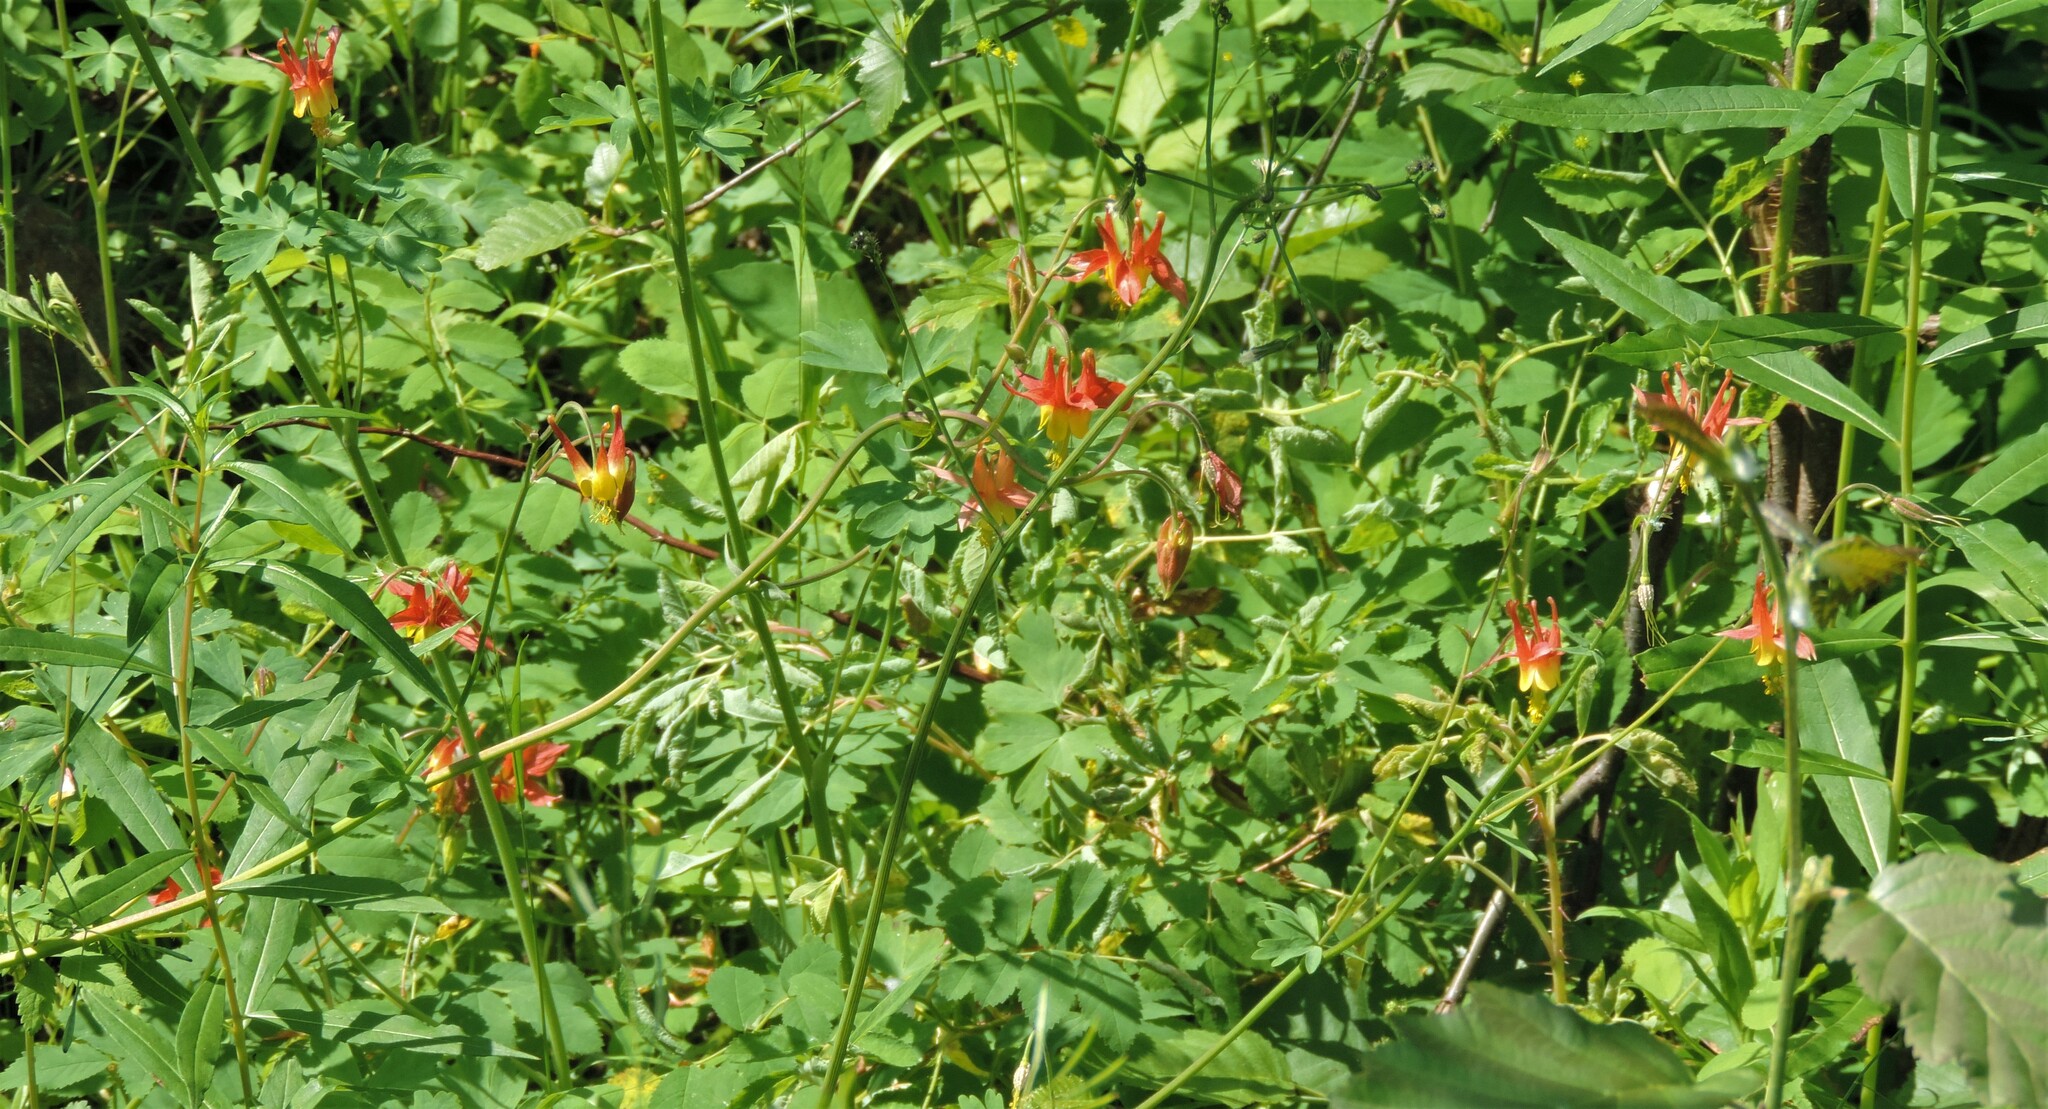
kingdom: Plantae
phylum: Tracheophyta
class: Magnoliopsida
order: Ranunculales
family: Ranunculaceae
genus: Aquilegia
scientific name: Aquilegia formosa
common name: Sitka columbine
